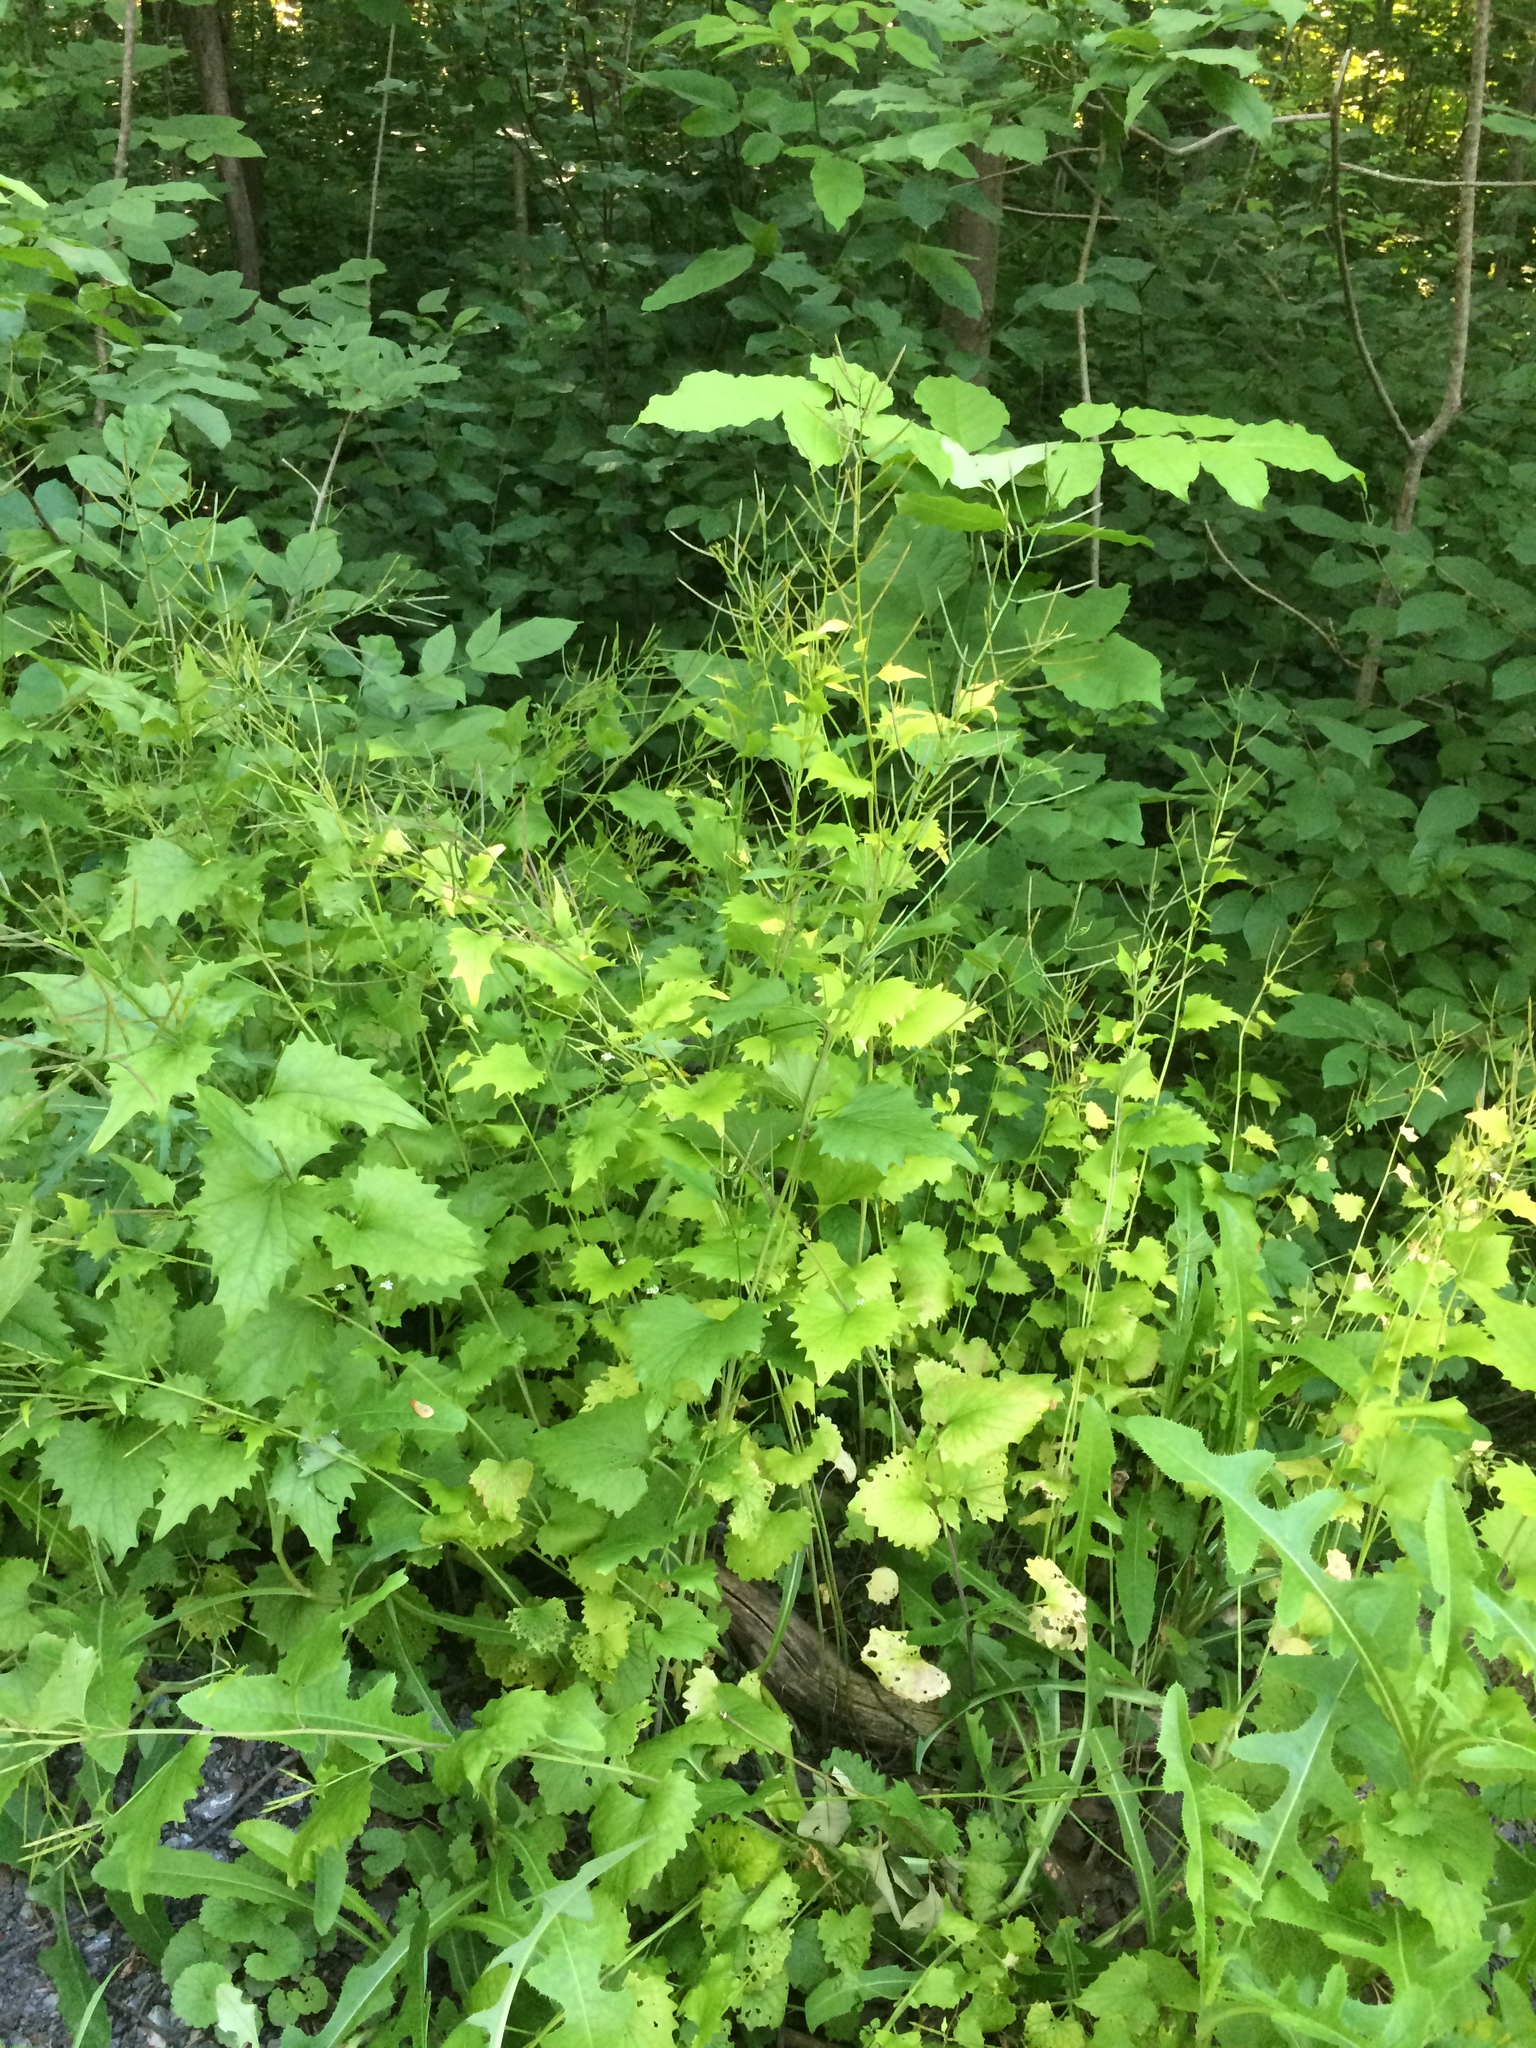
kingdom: Plantae
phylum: Tracheophyta
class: Magnoliopsida
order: Brassicales
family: Brassicaceae
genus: Alliaria
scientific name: Alliaria petiolata
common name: Garlic mustard
